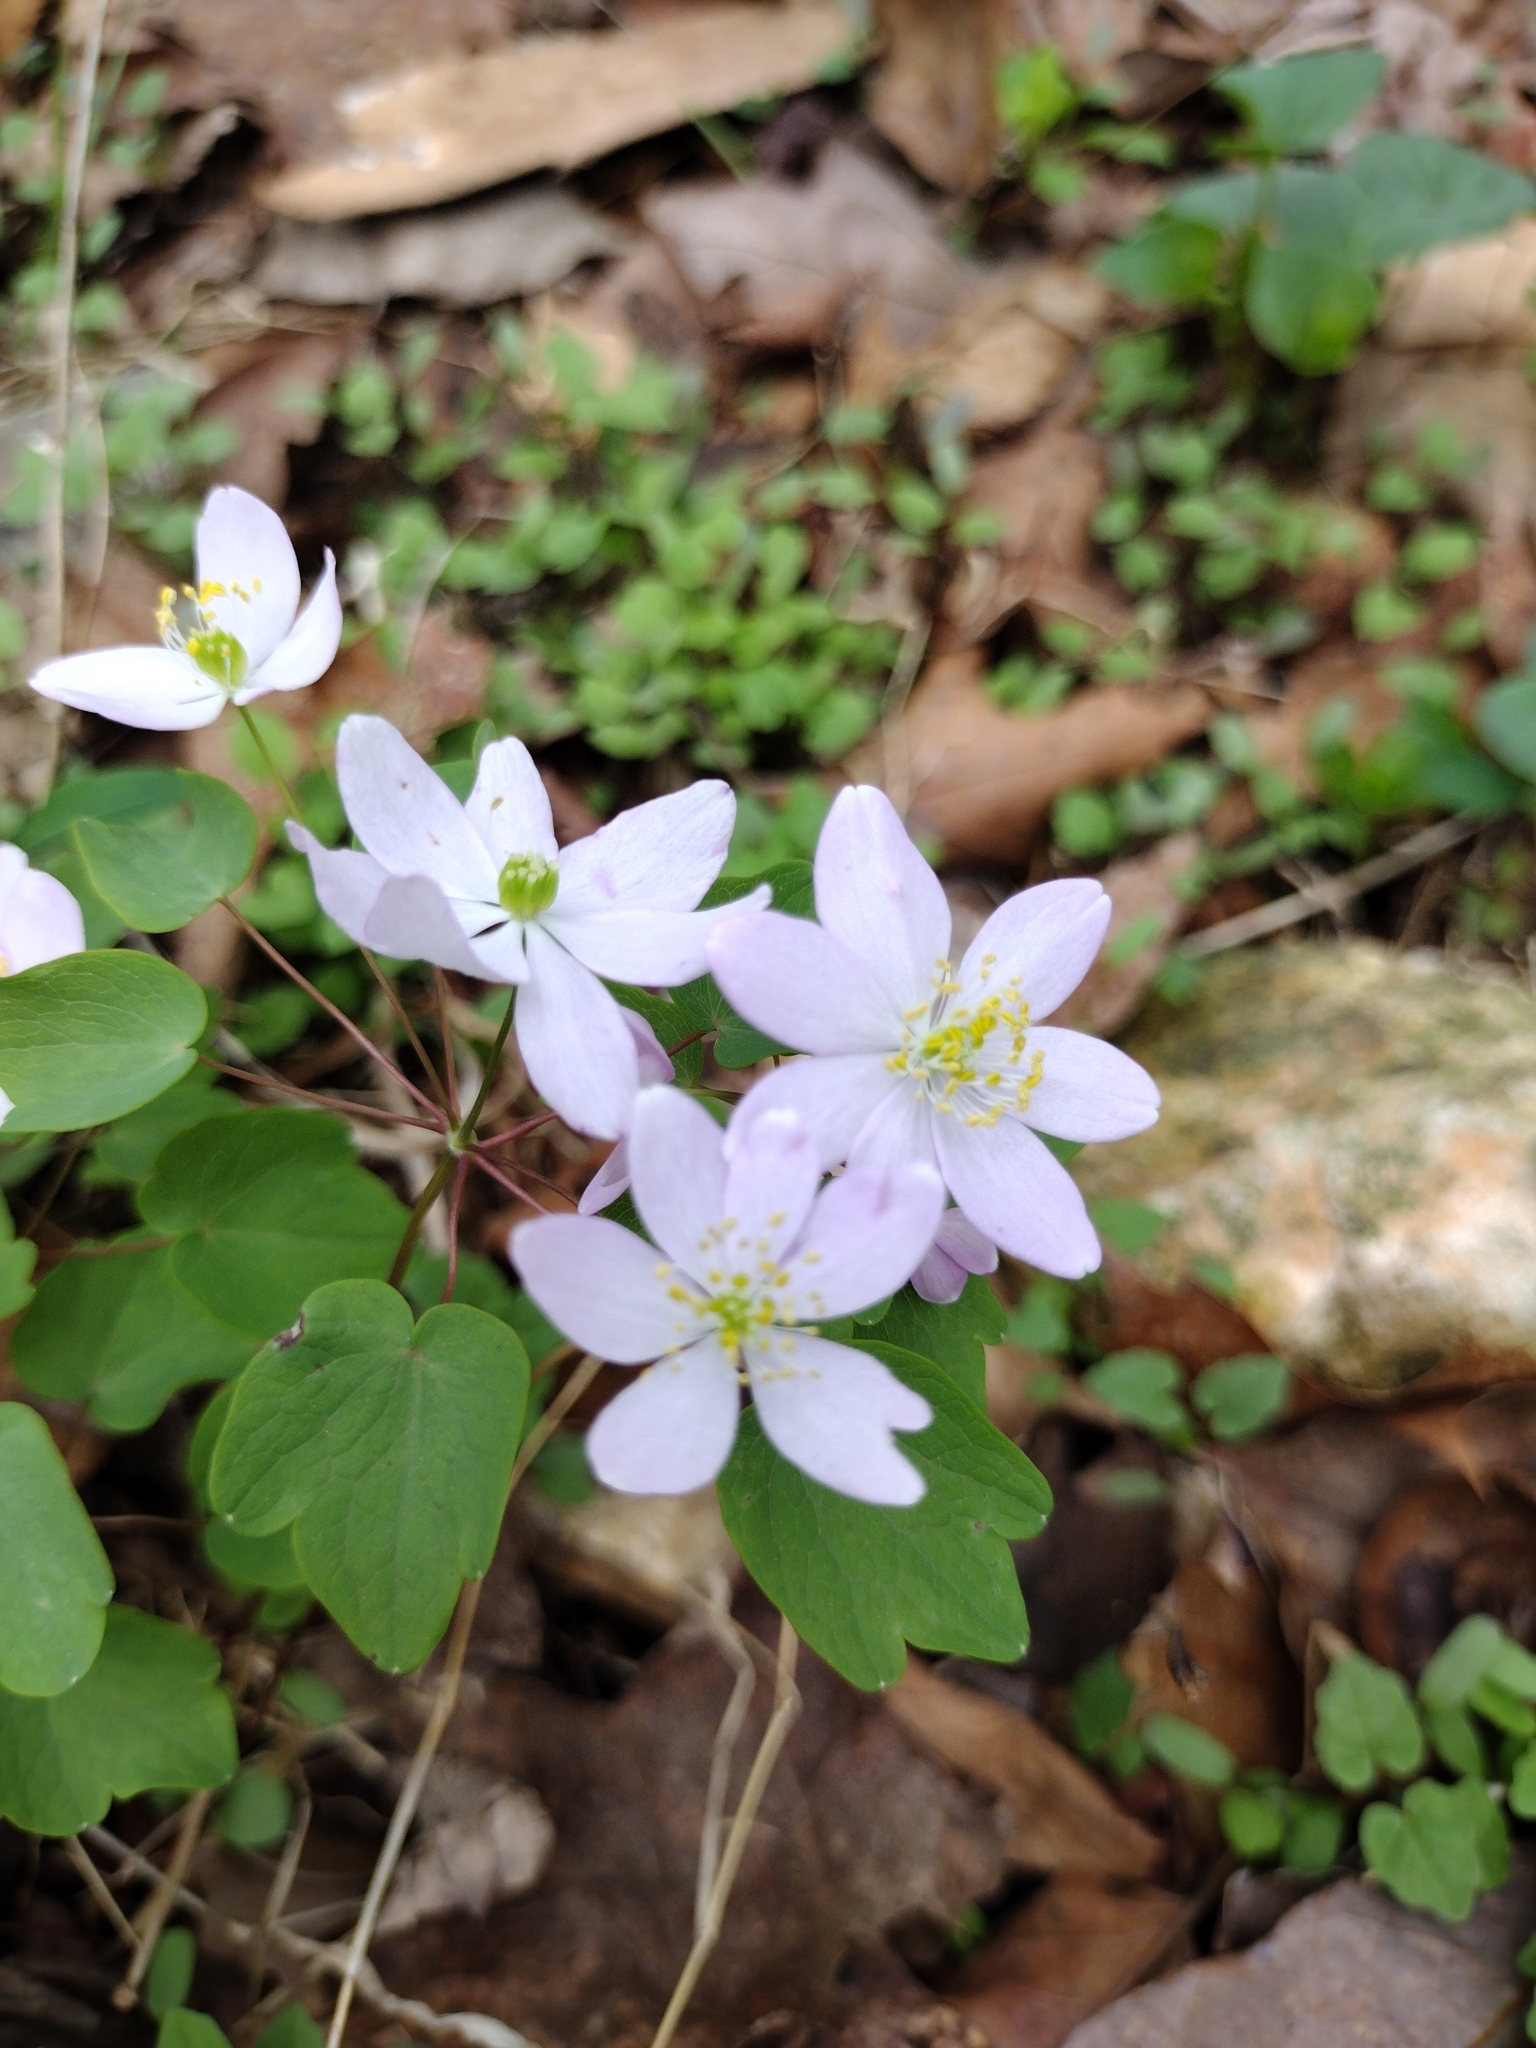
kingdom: Plantae
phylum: Tracheophyta
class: Magnoliopsida
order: Ranunculales
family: Ranunculaceae
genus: Thalictrum
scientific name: Thalictrum thalictroides
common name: Rue-anemone
